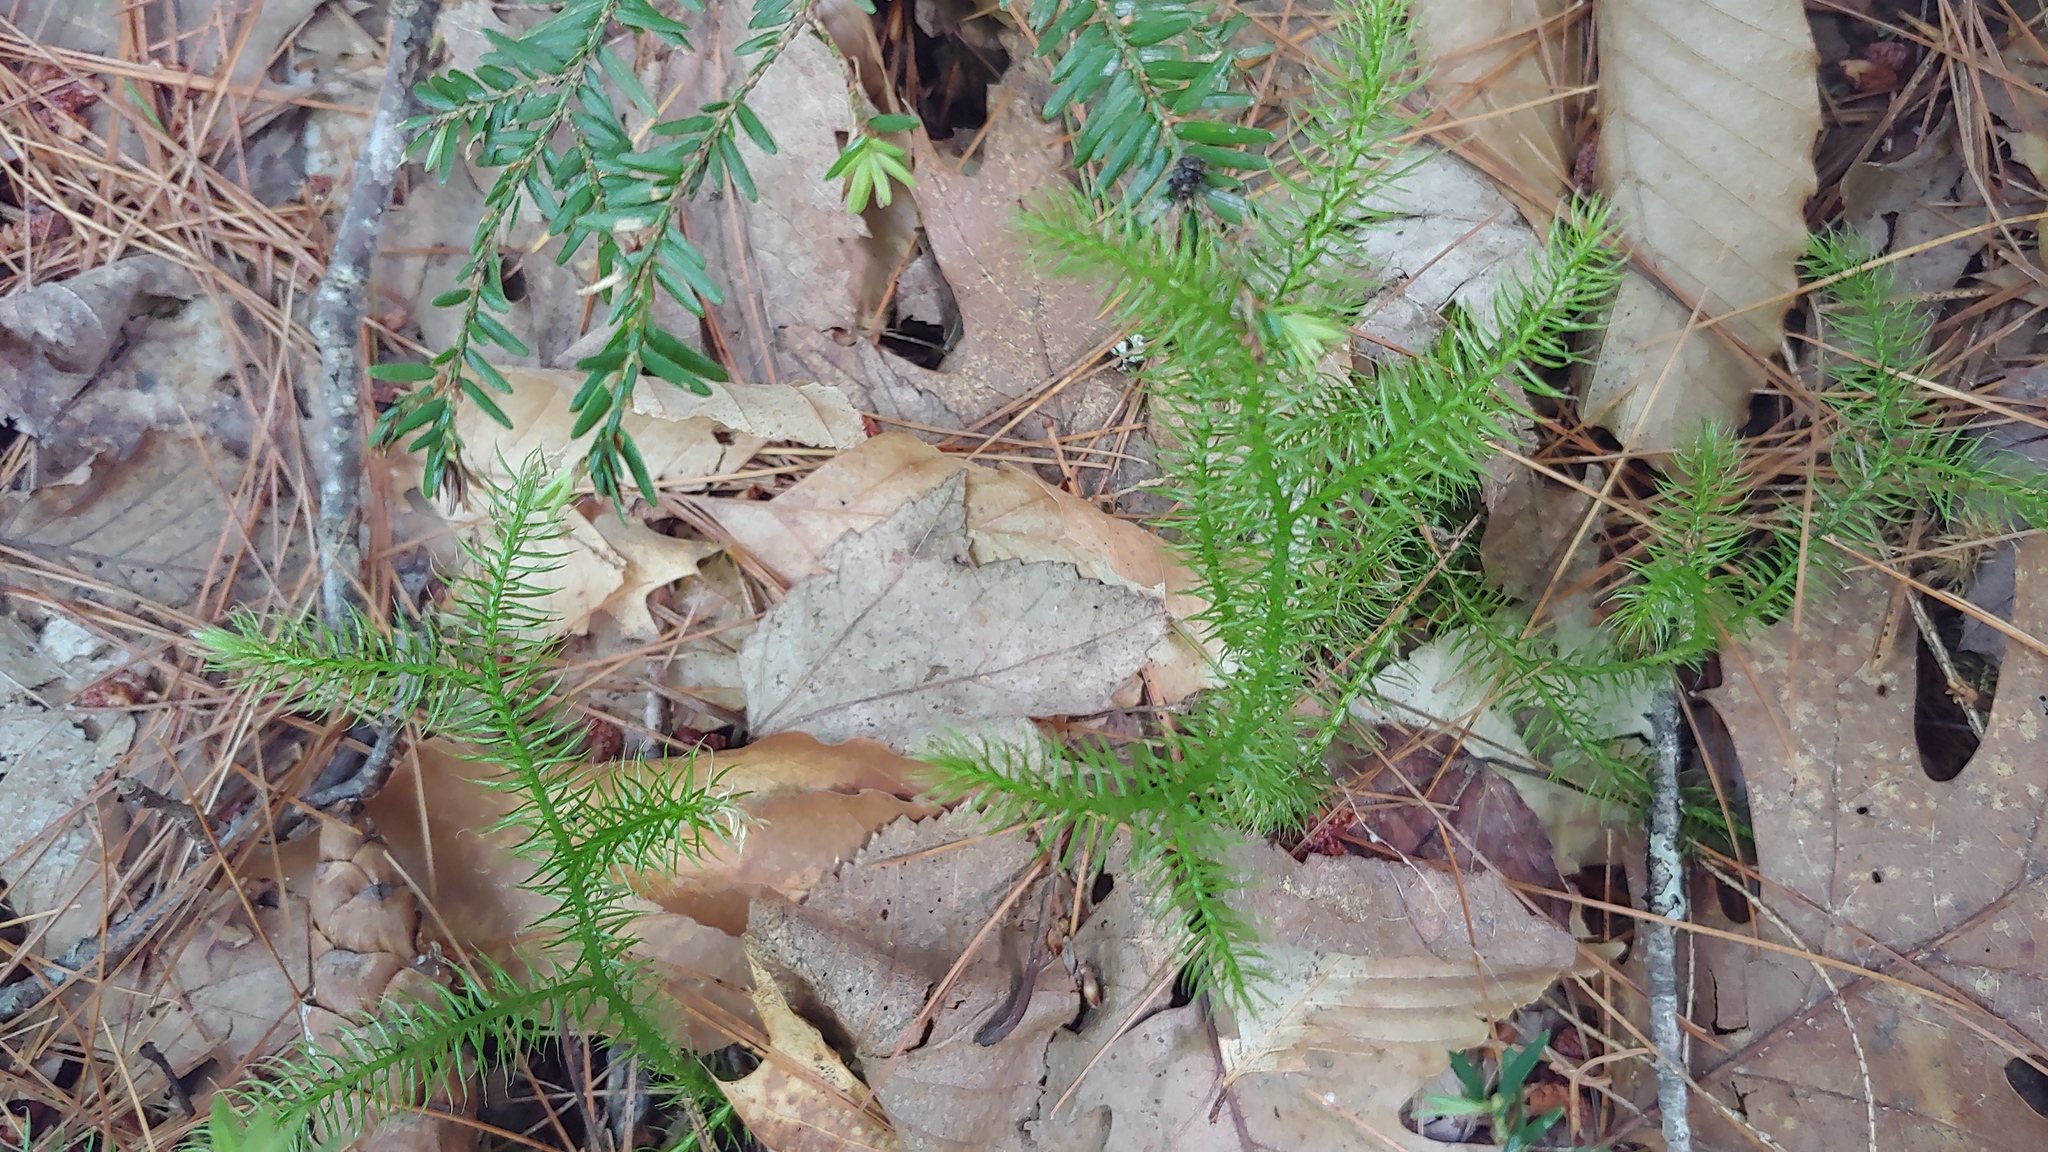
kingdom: Plantae
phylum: Tracheophyta
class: Lycopodiopsida
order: Lycopodiales
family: Lycopodiaceae
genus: Lycopodium
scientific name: Lycopodium clavatum
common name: Stag's-horn clubmoss
